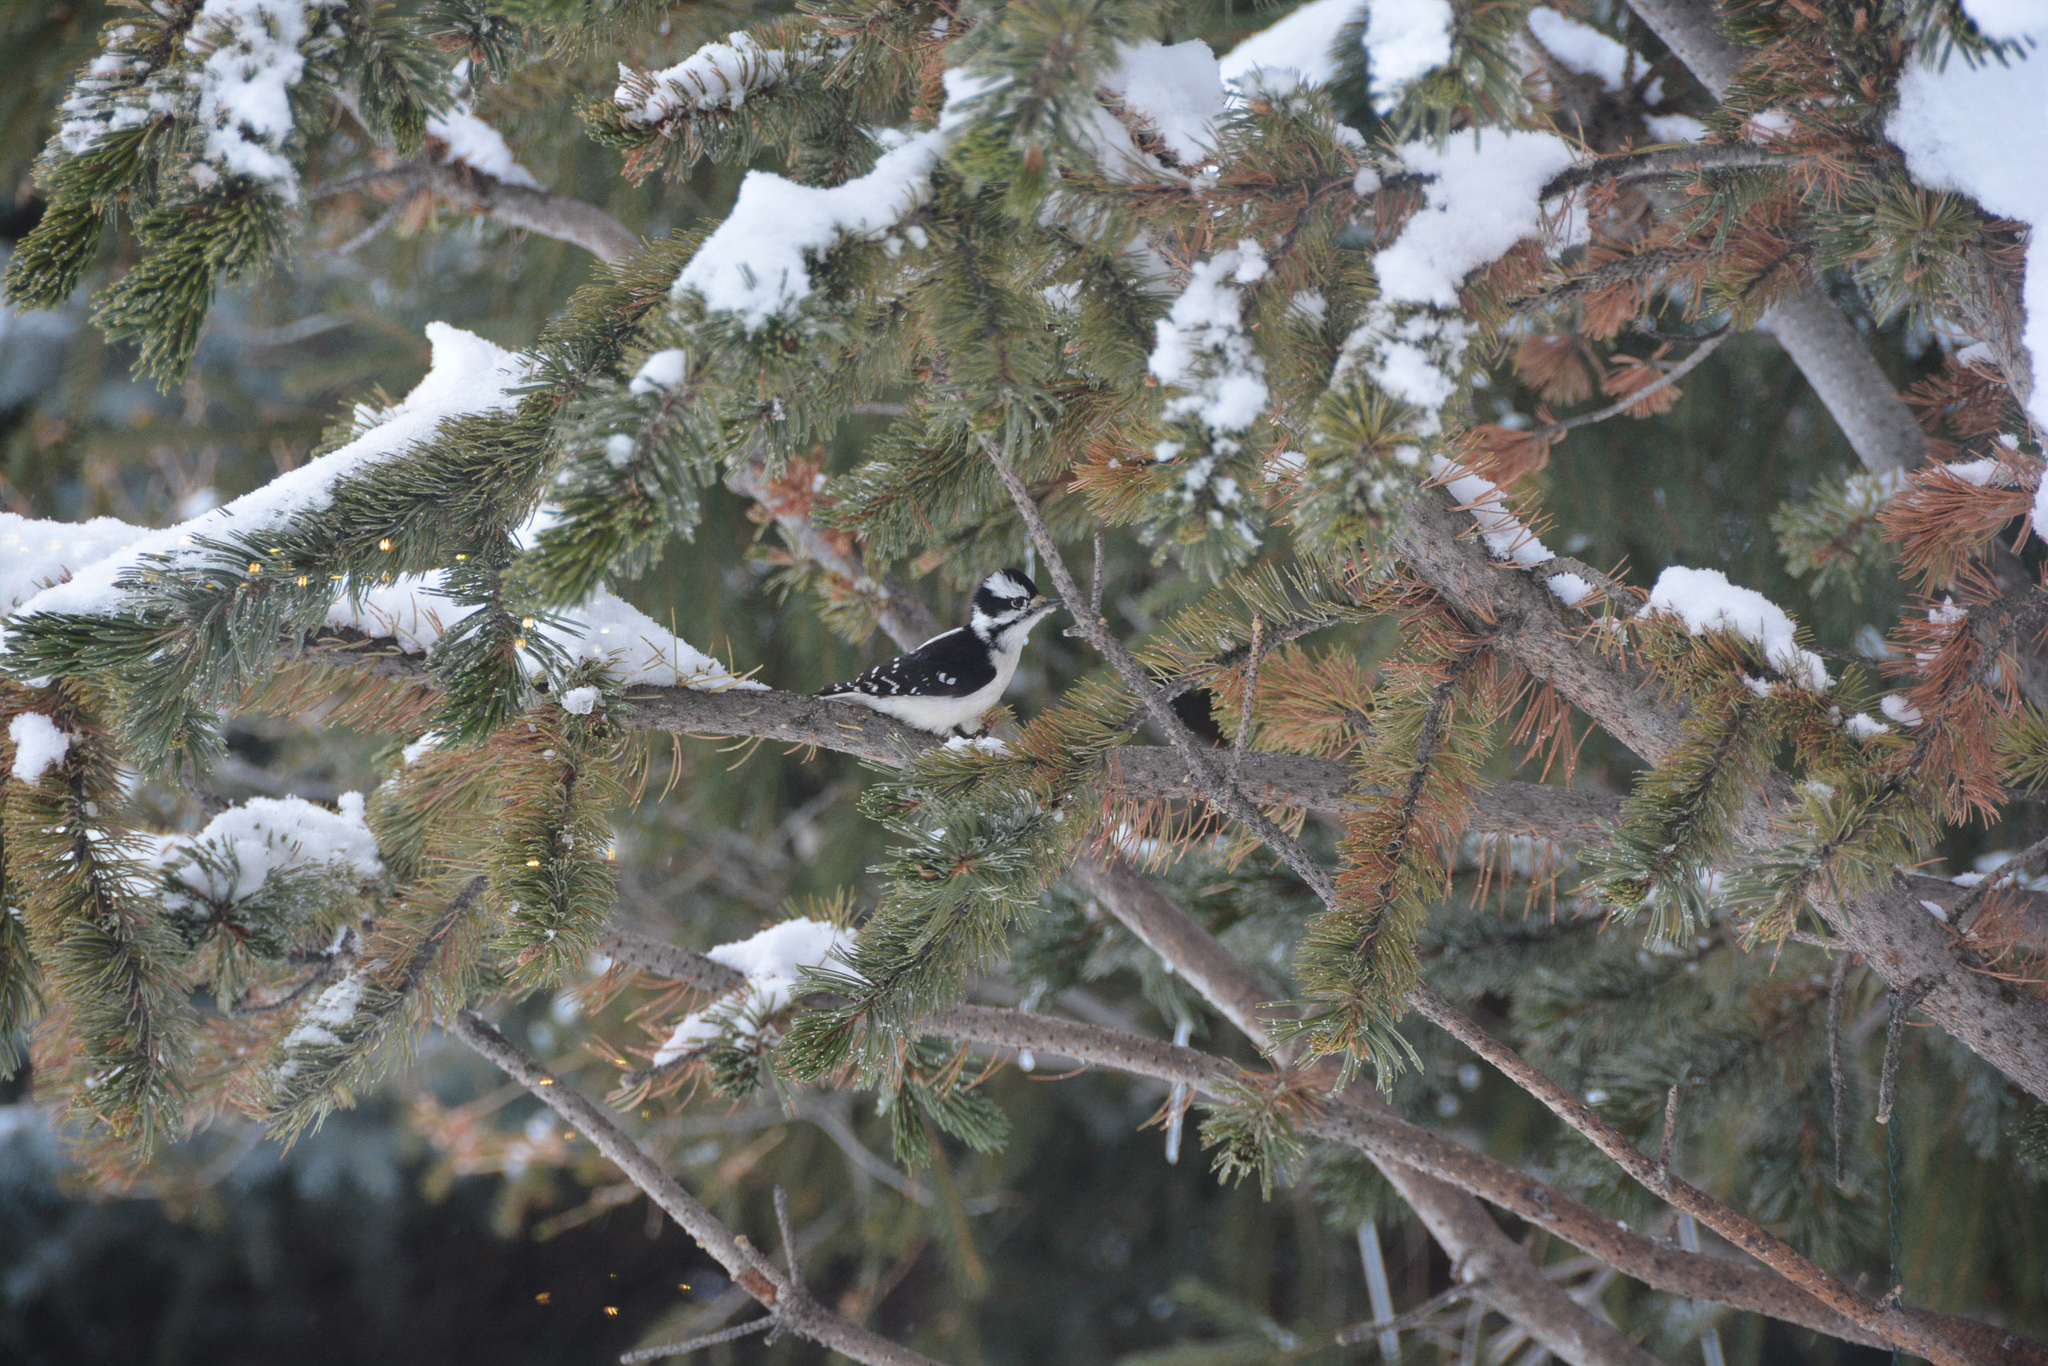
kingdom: Animalia
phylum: Chordata
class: Aves
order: Piciformes
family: Picidae
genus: Dryobates
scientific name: Dryobates pubescens
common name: Downy woodpecker
